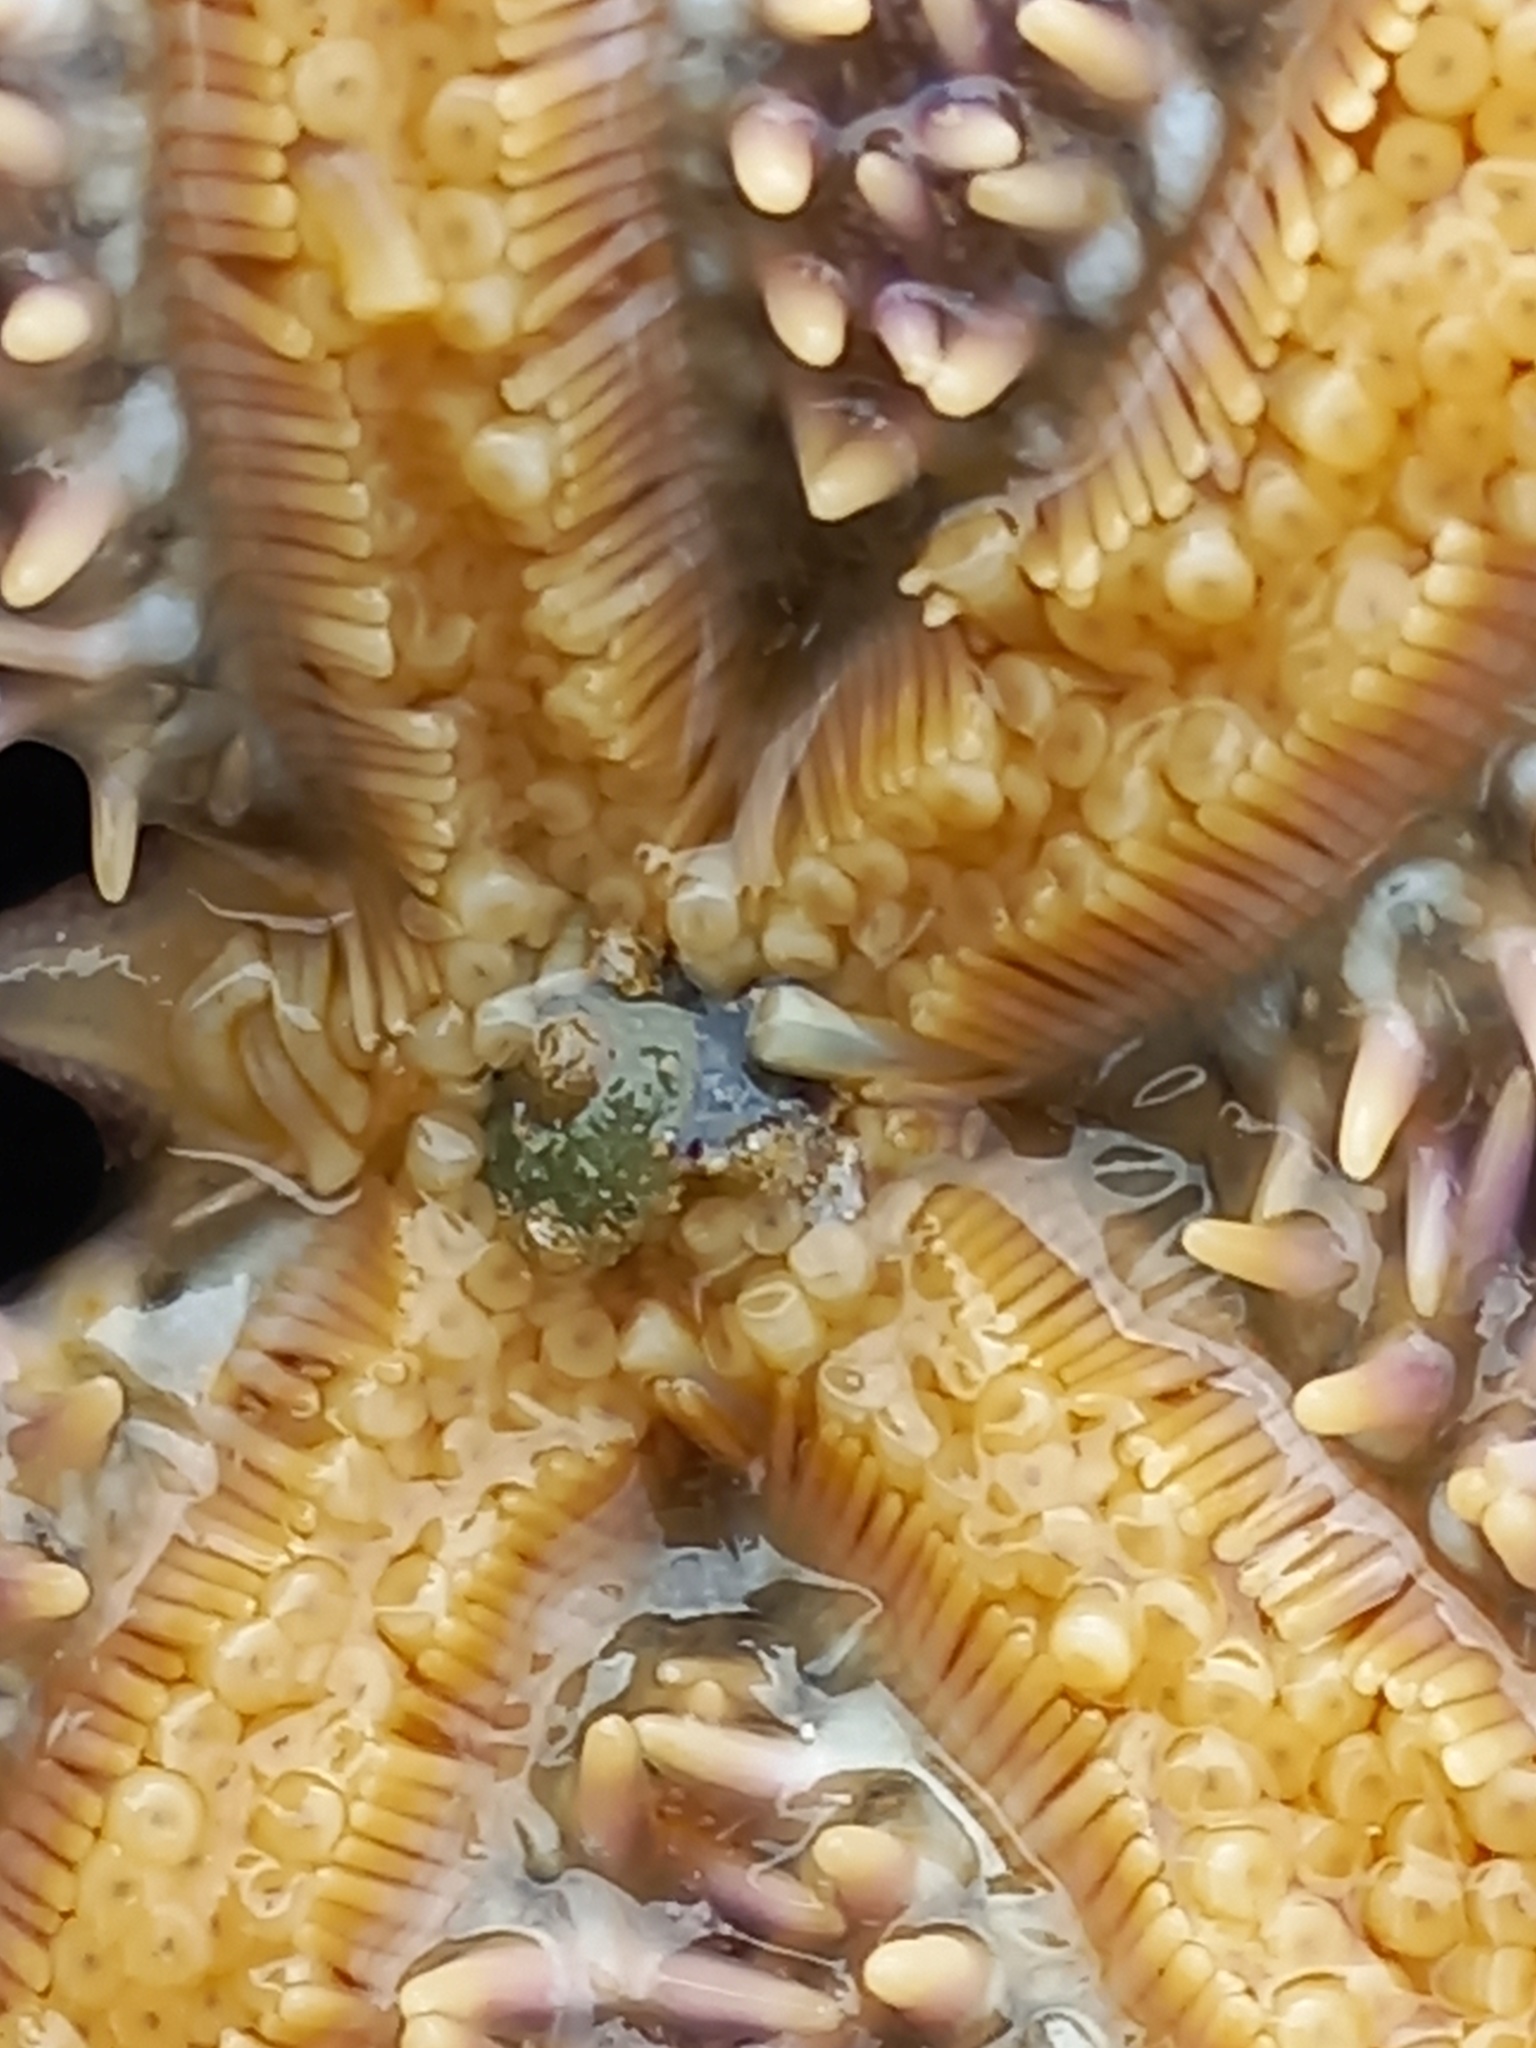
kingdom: Animalia
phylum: Echinodermata
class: Asteroidea
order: Forcipulatida
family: Asteriidae
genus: Marthasterias
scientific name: Marthasterias glacialis
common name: Spiny starfish
